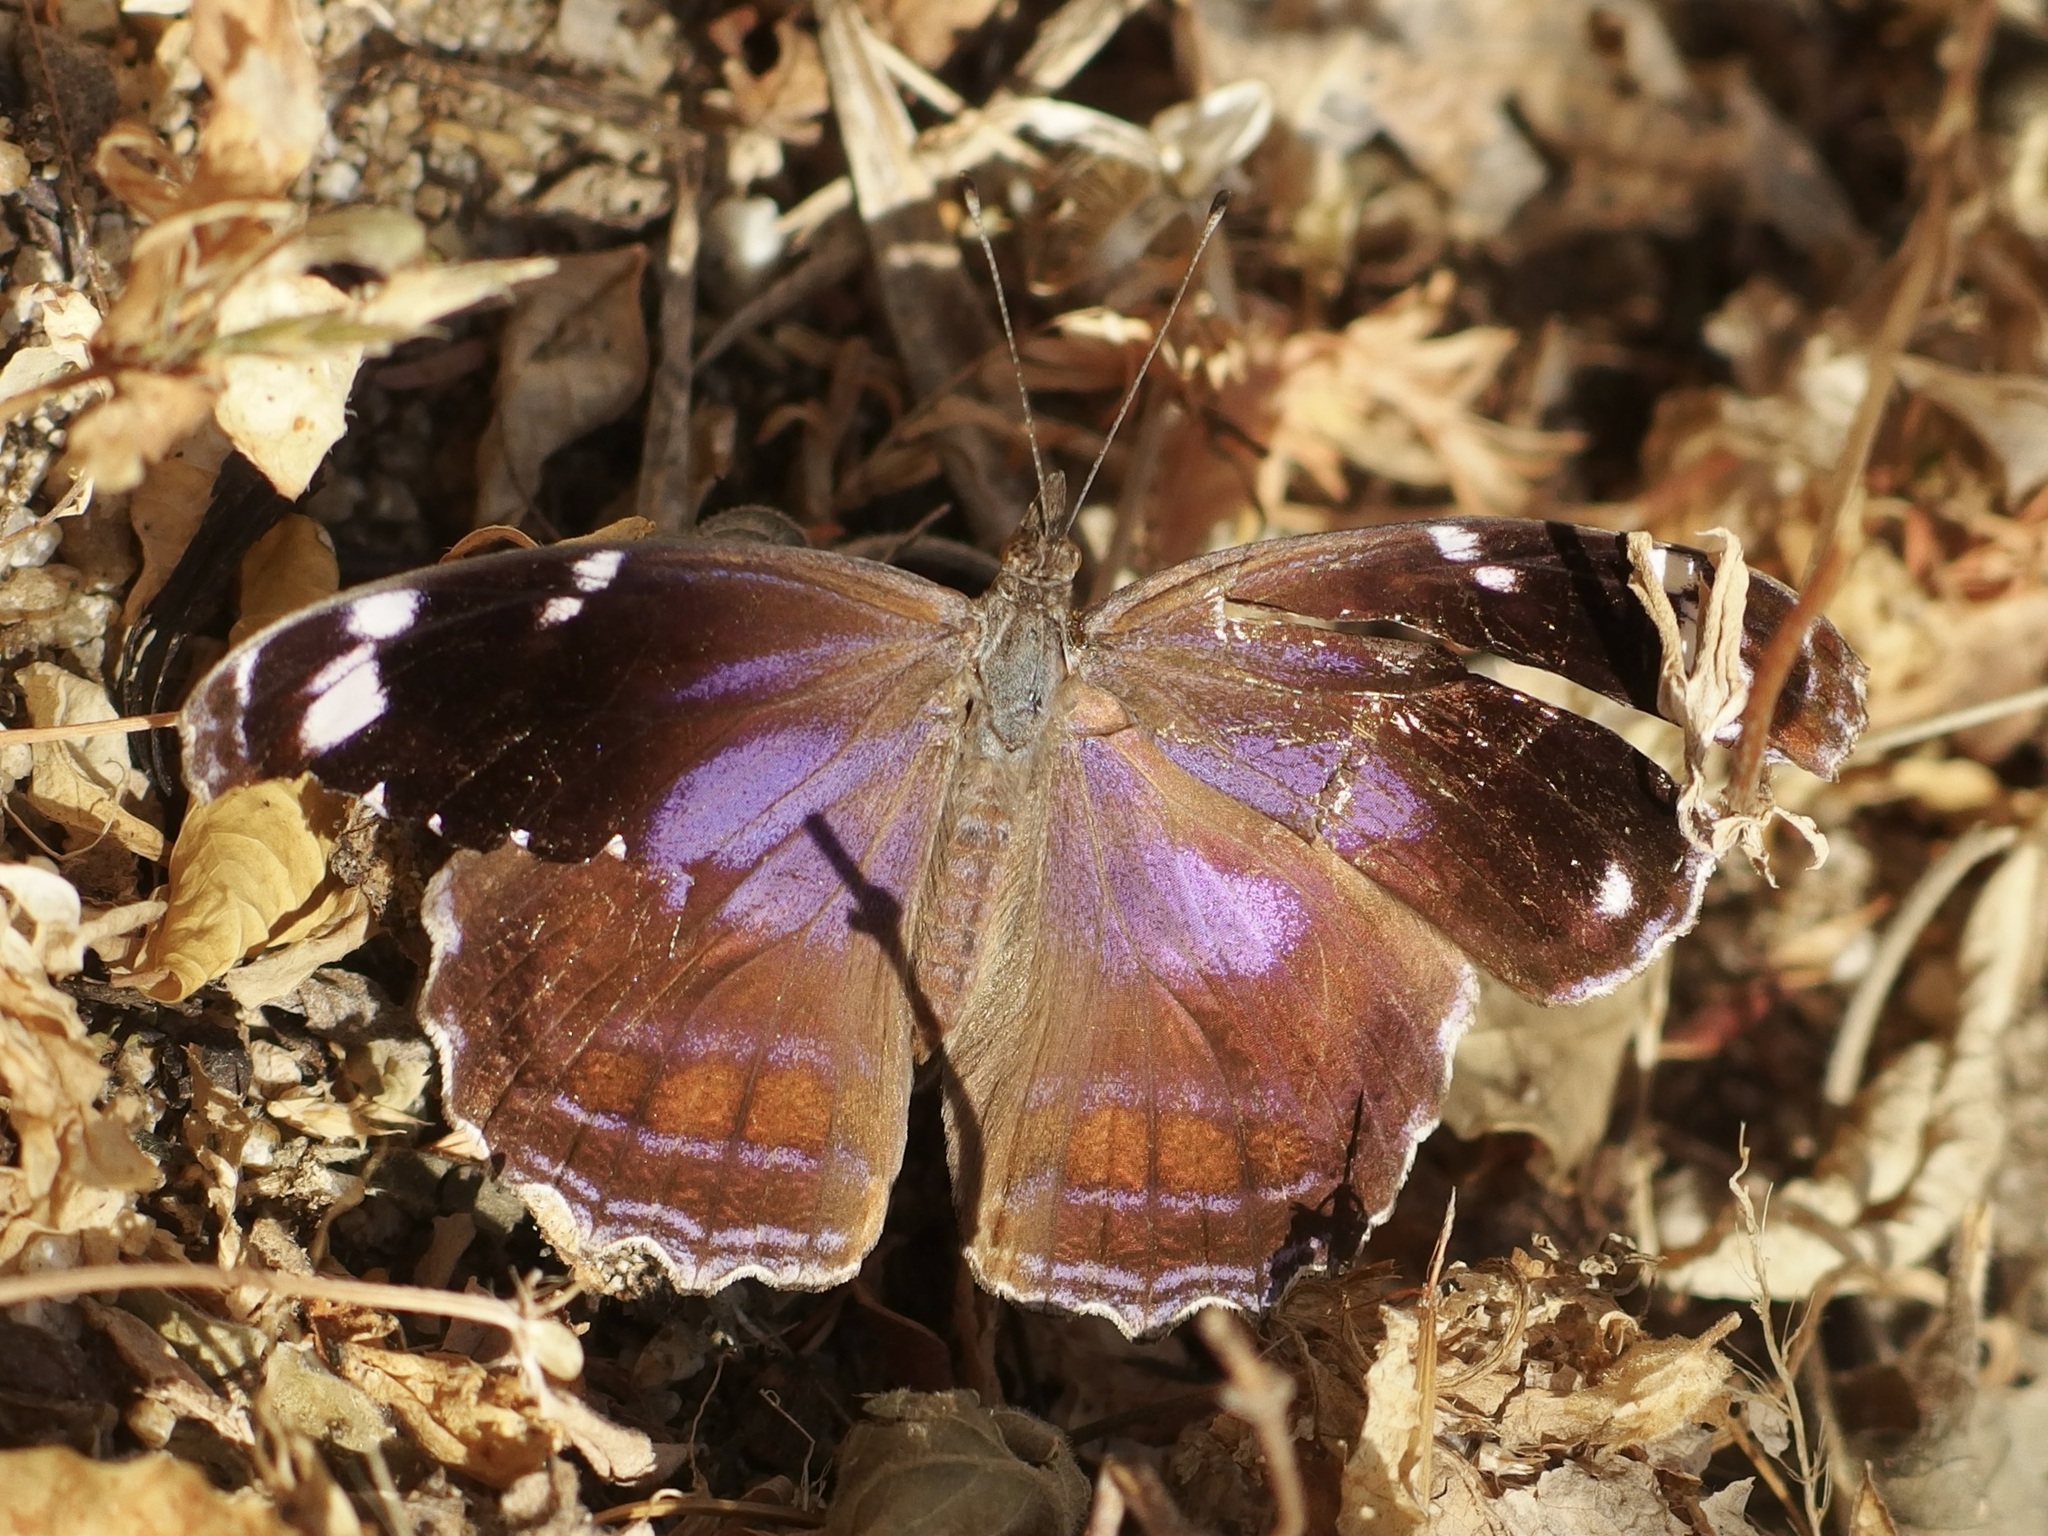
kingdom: Animalia
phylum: Arthropoda
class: Insecta
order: Lepidoptera
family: Nymphalidae
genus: Myscelia
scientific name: Myscelia cyananthe
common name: Blackened bluewing
